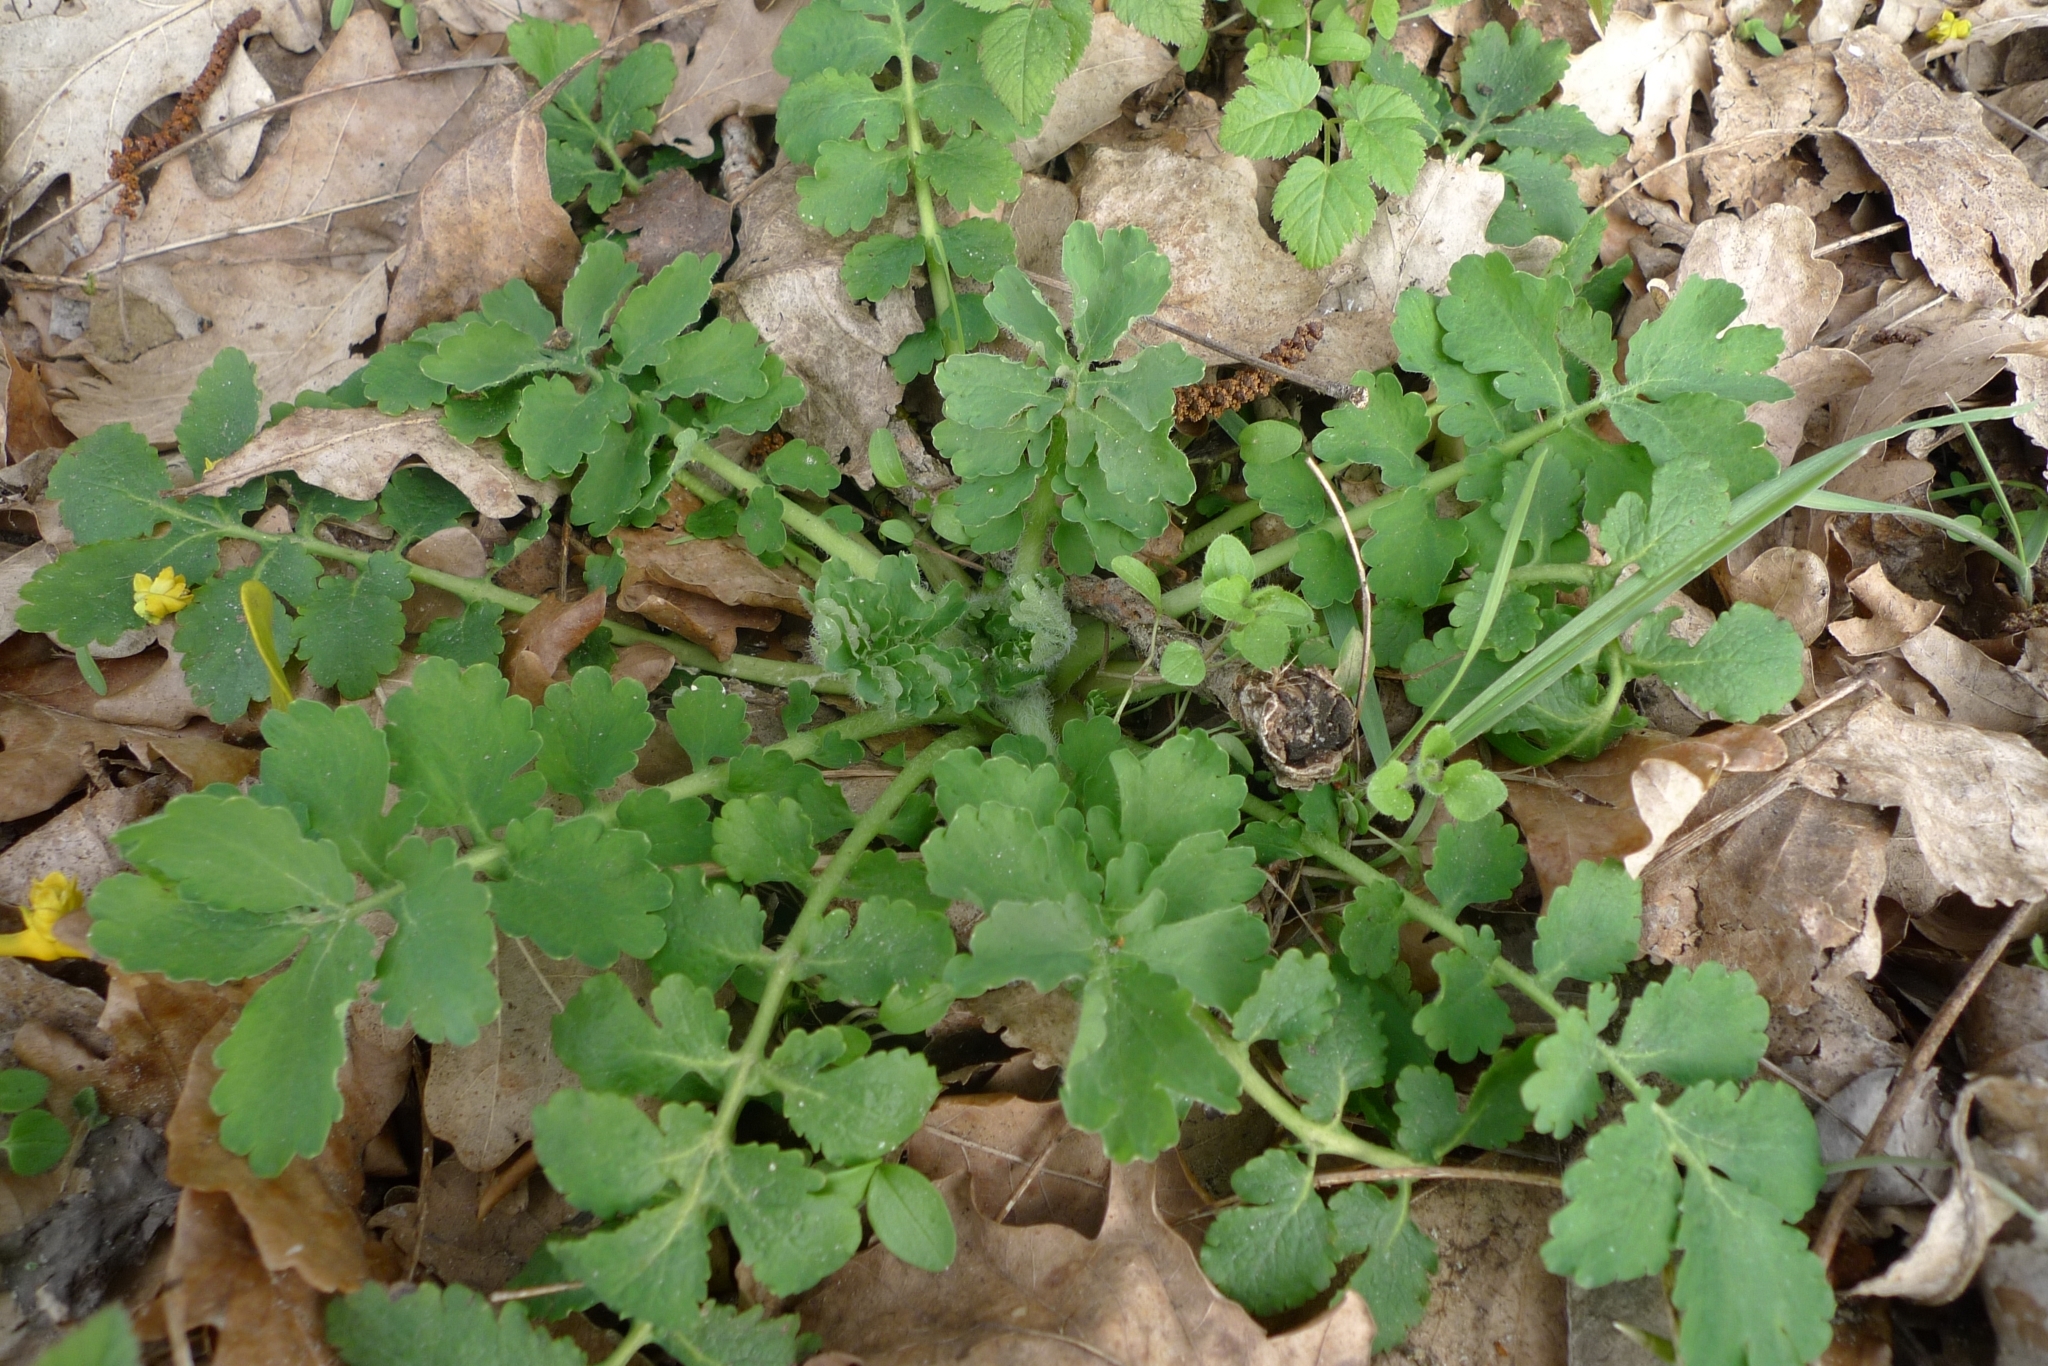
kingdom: Plantae
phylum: Tracheophyta
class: Magnoliopsida
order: Ranunculales
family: Papaveraceae
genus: Chelidonium
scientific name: Chelidonium majus
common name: Greater celandine
